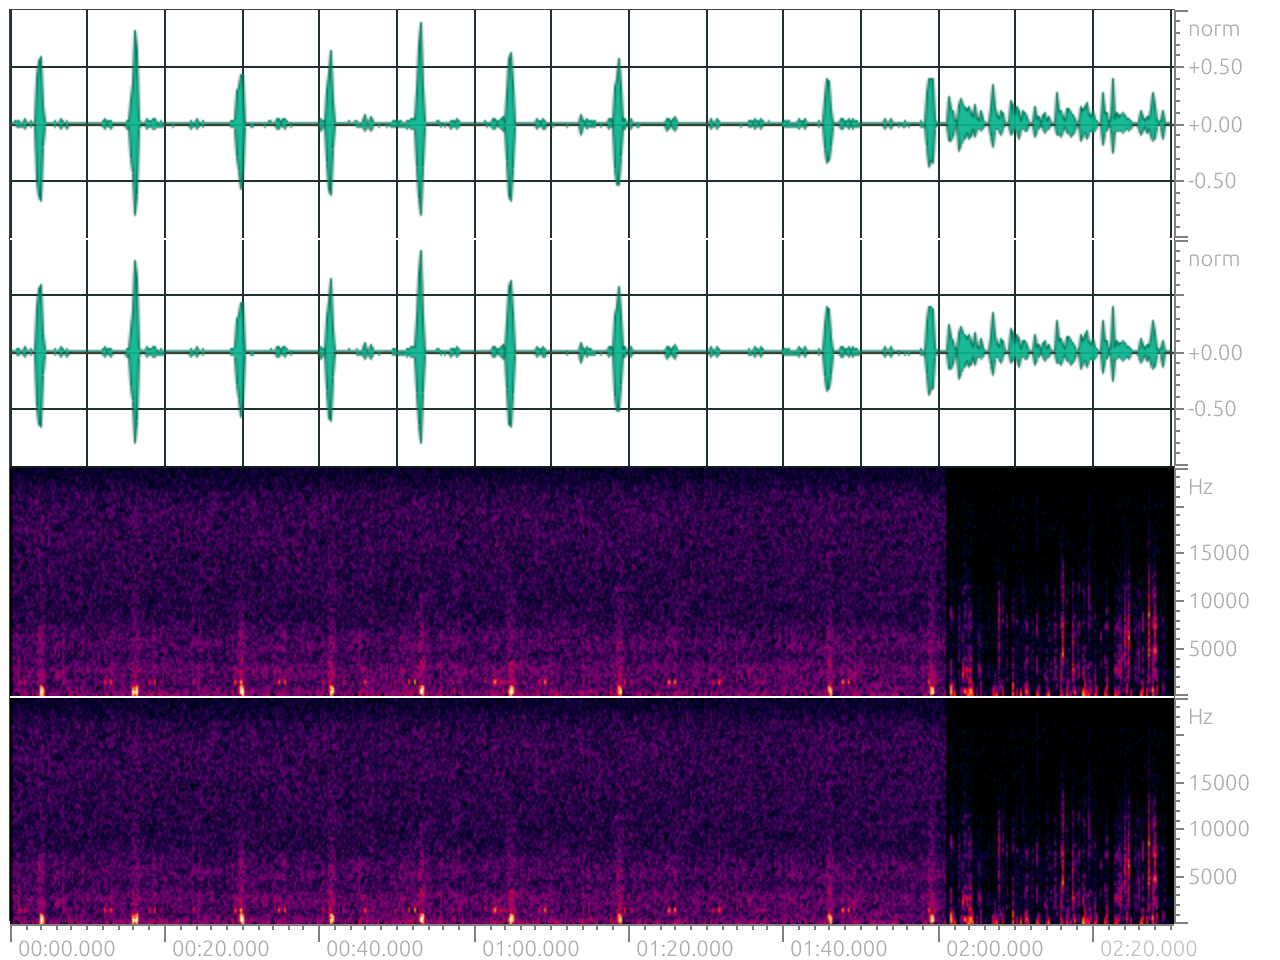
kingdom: Animalia
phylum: Chordata
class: Aves
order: Strigiformes
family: Strigidae
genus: Strix
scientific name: Strix leptogrammica
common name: Brown wood owl
